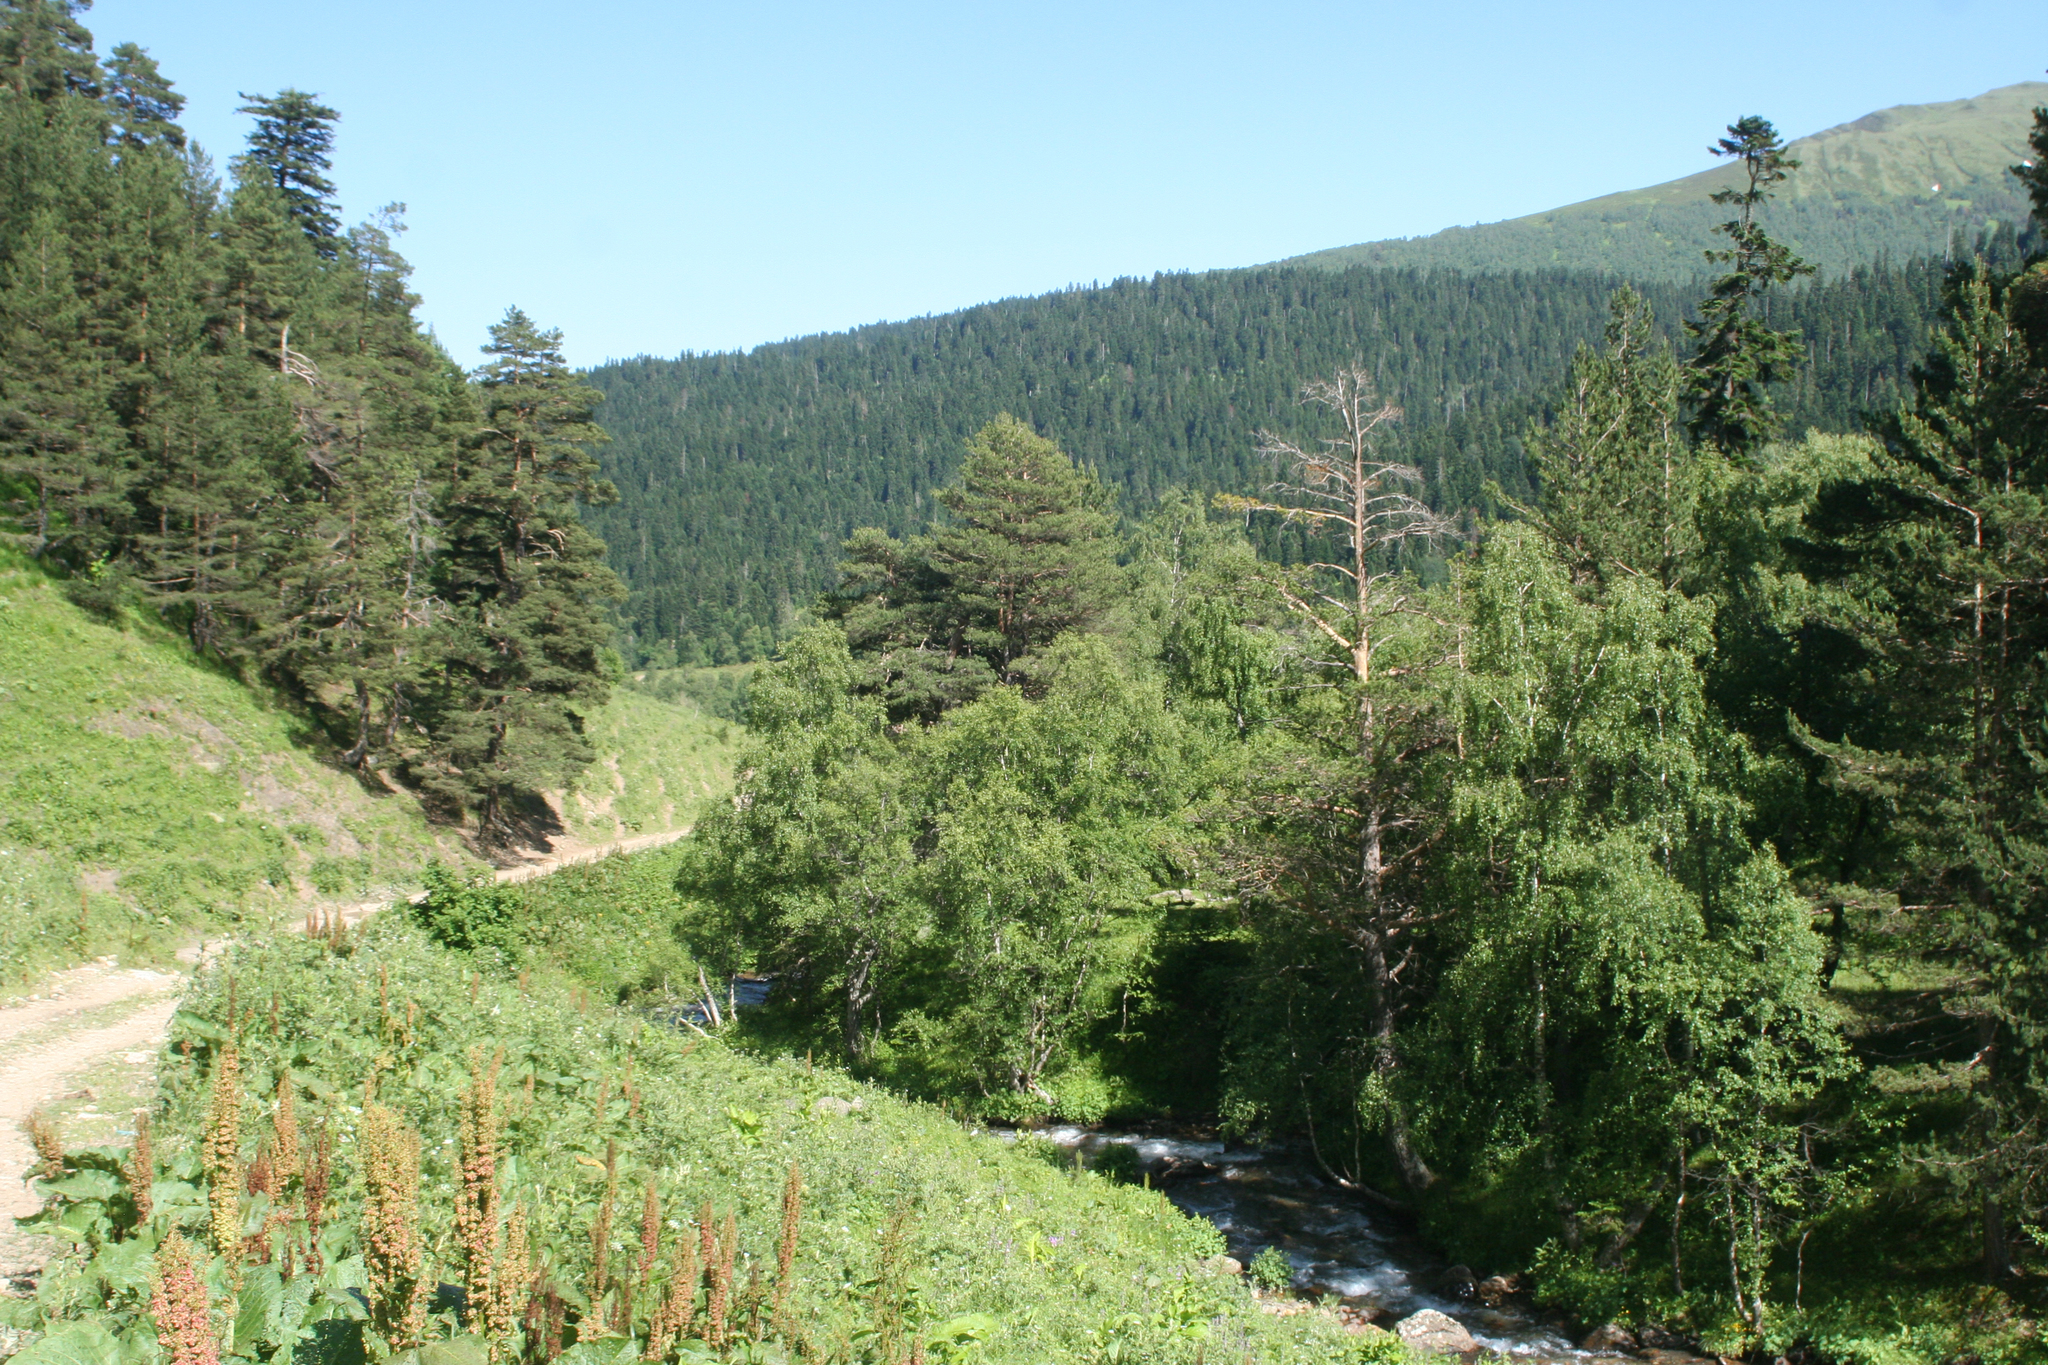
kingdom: Plantae
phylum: Tracheophyta
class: Magnoliopsida
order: Caryophyllales
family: Polygonaceae
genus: Rumex
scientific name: Rumex alpinus
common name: Alpine dock
